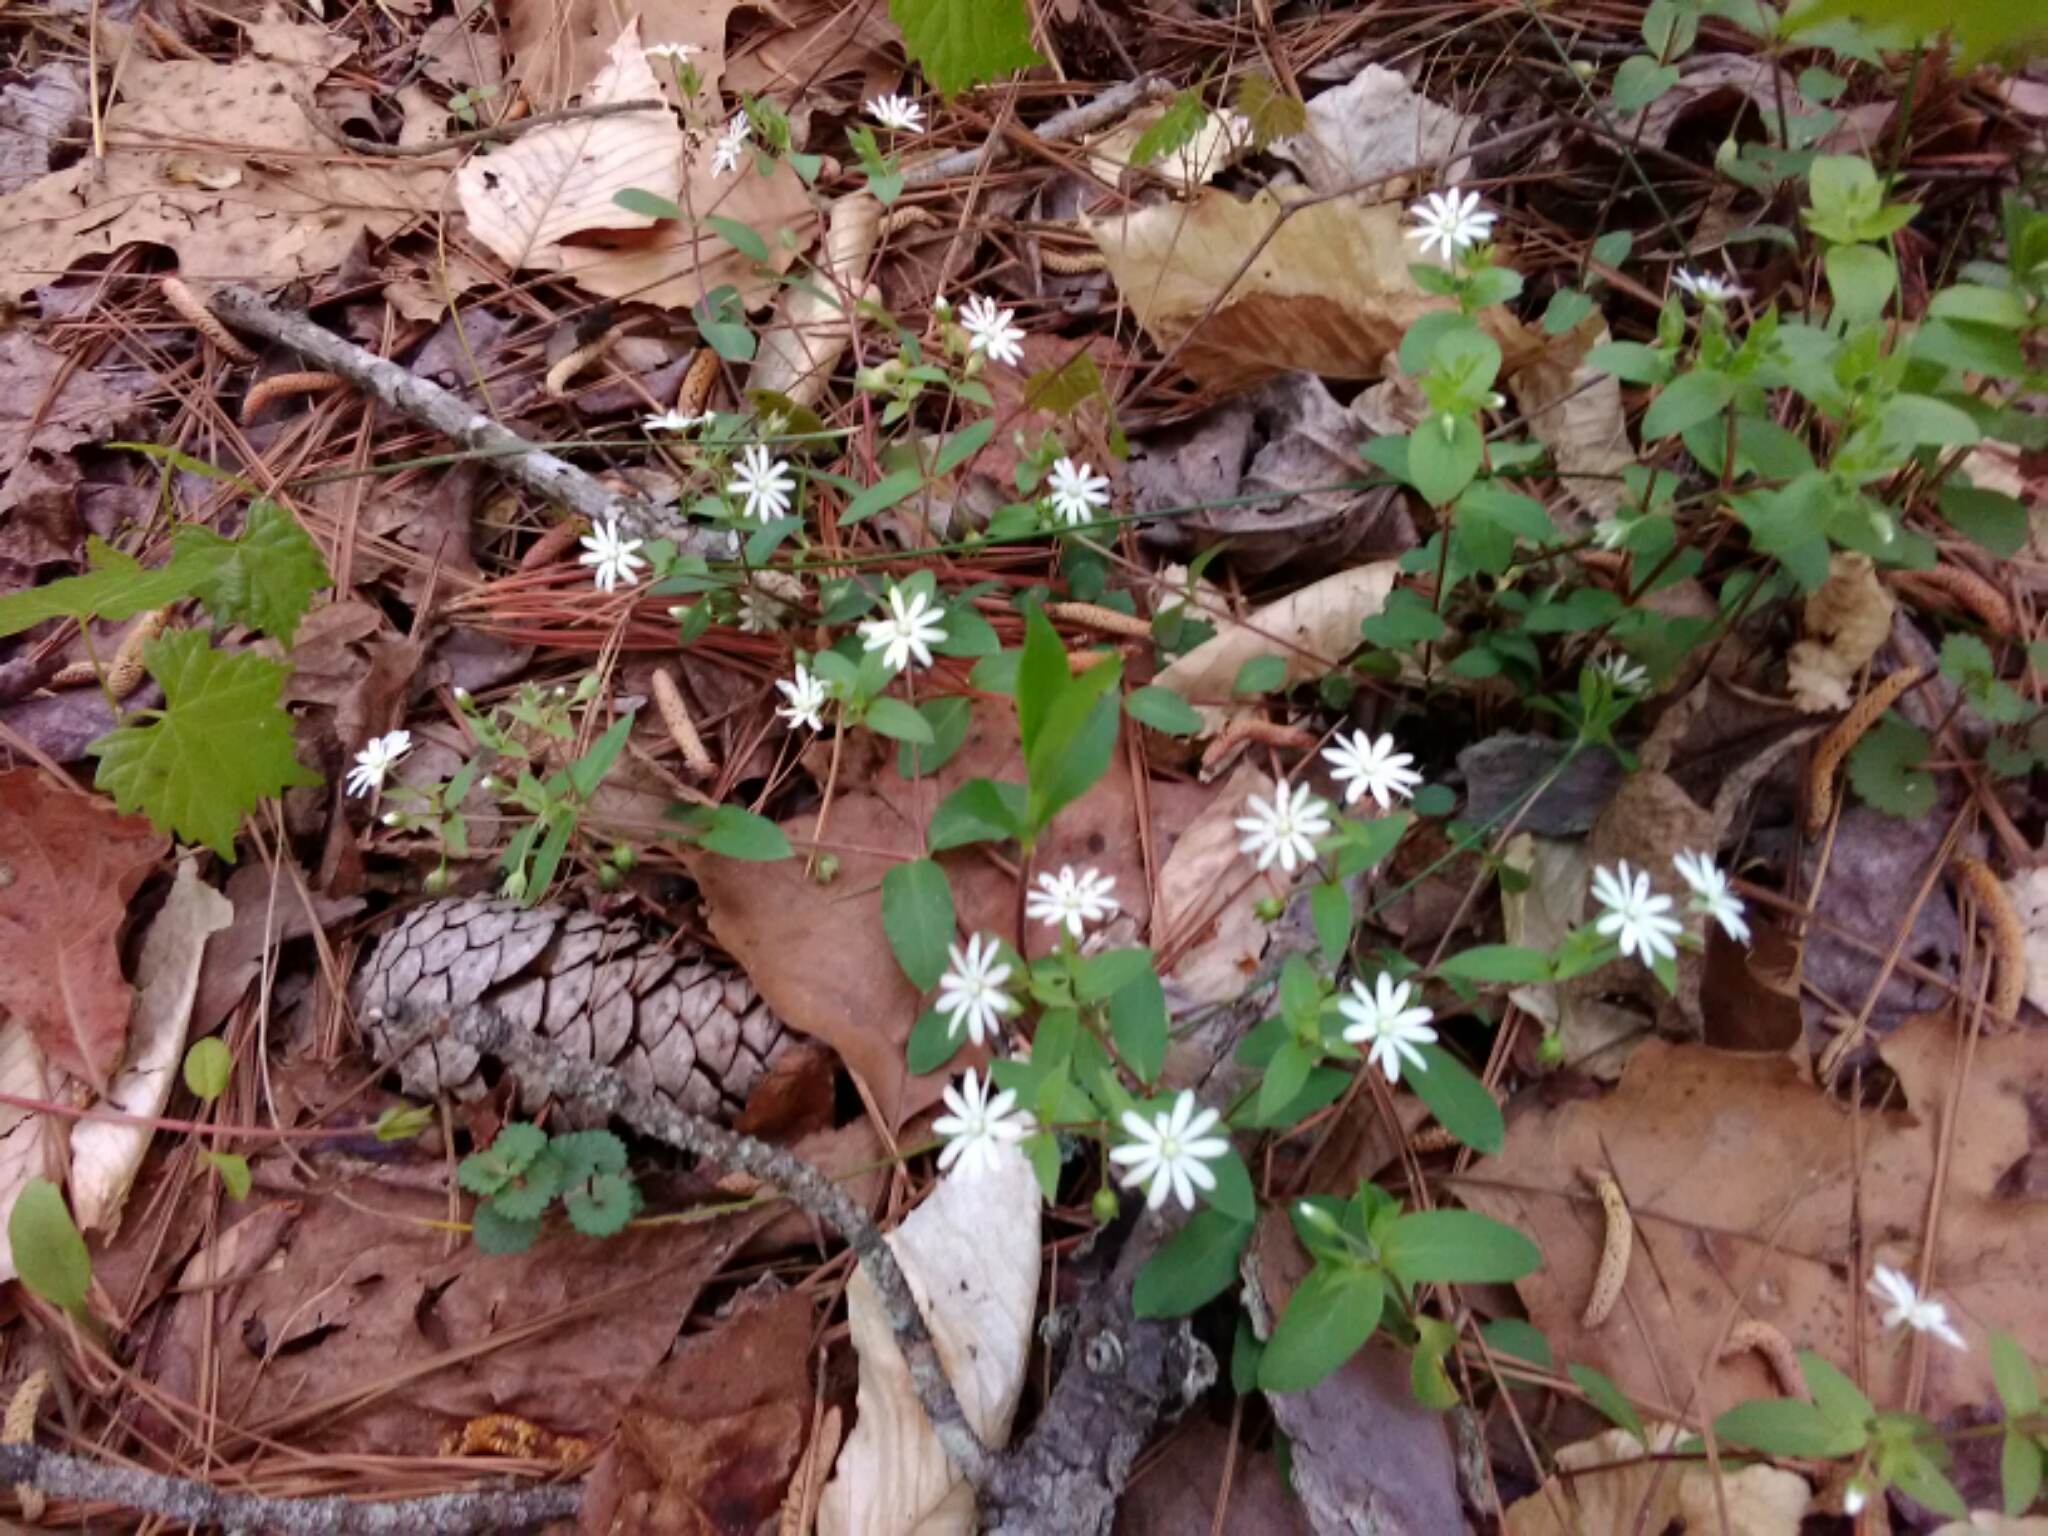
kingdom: Plantae
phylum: Tracheophyta
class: Magnoliopsida
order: Caryophyllales
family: Caryophyllaceae
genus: Stellaria
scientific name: Stellaria pubera
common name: Star chickweed
